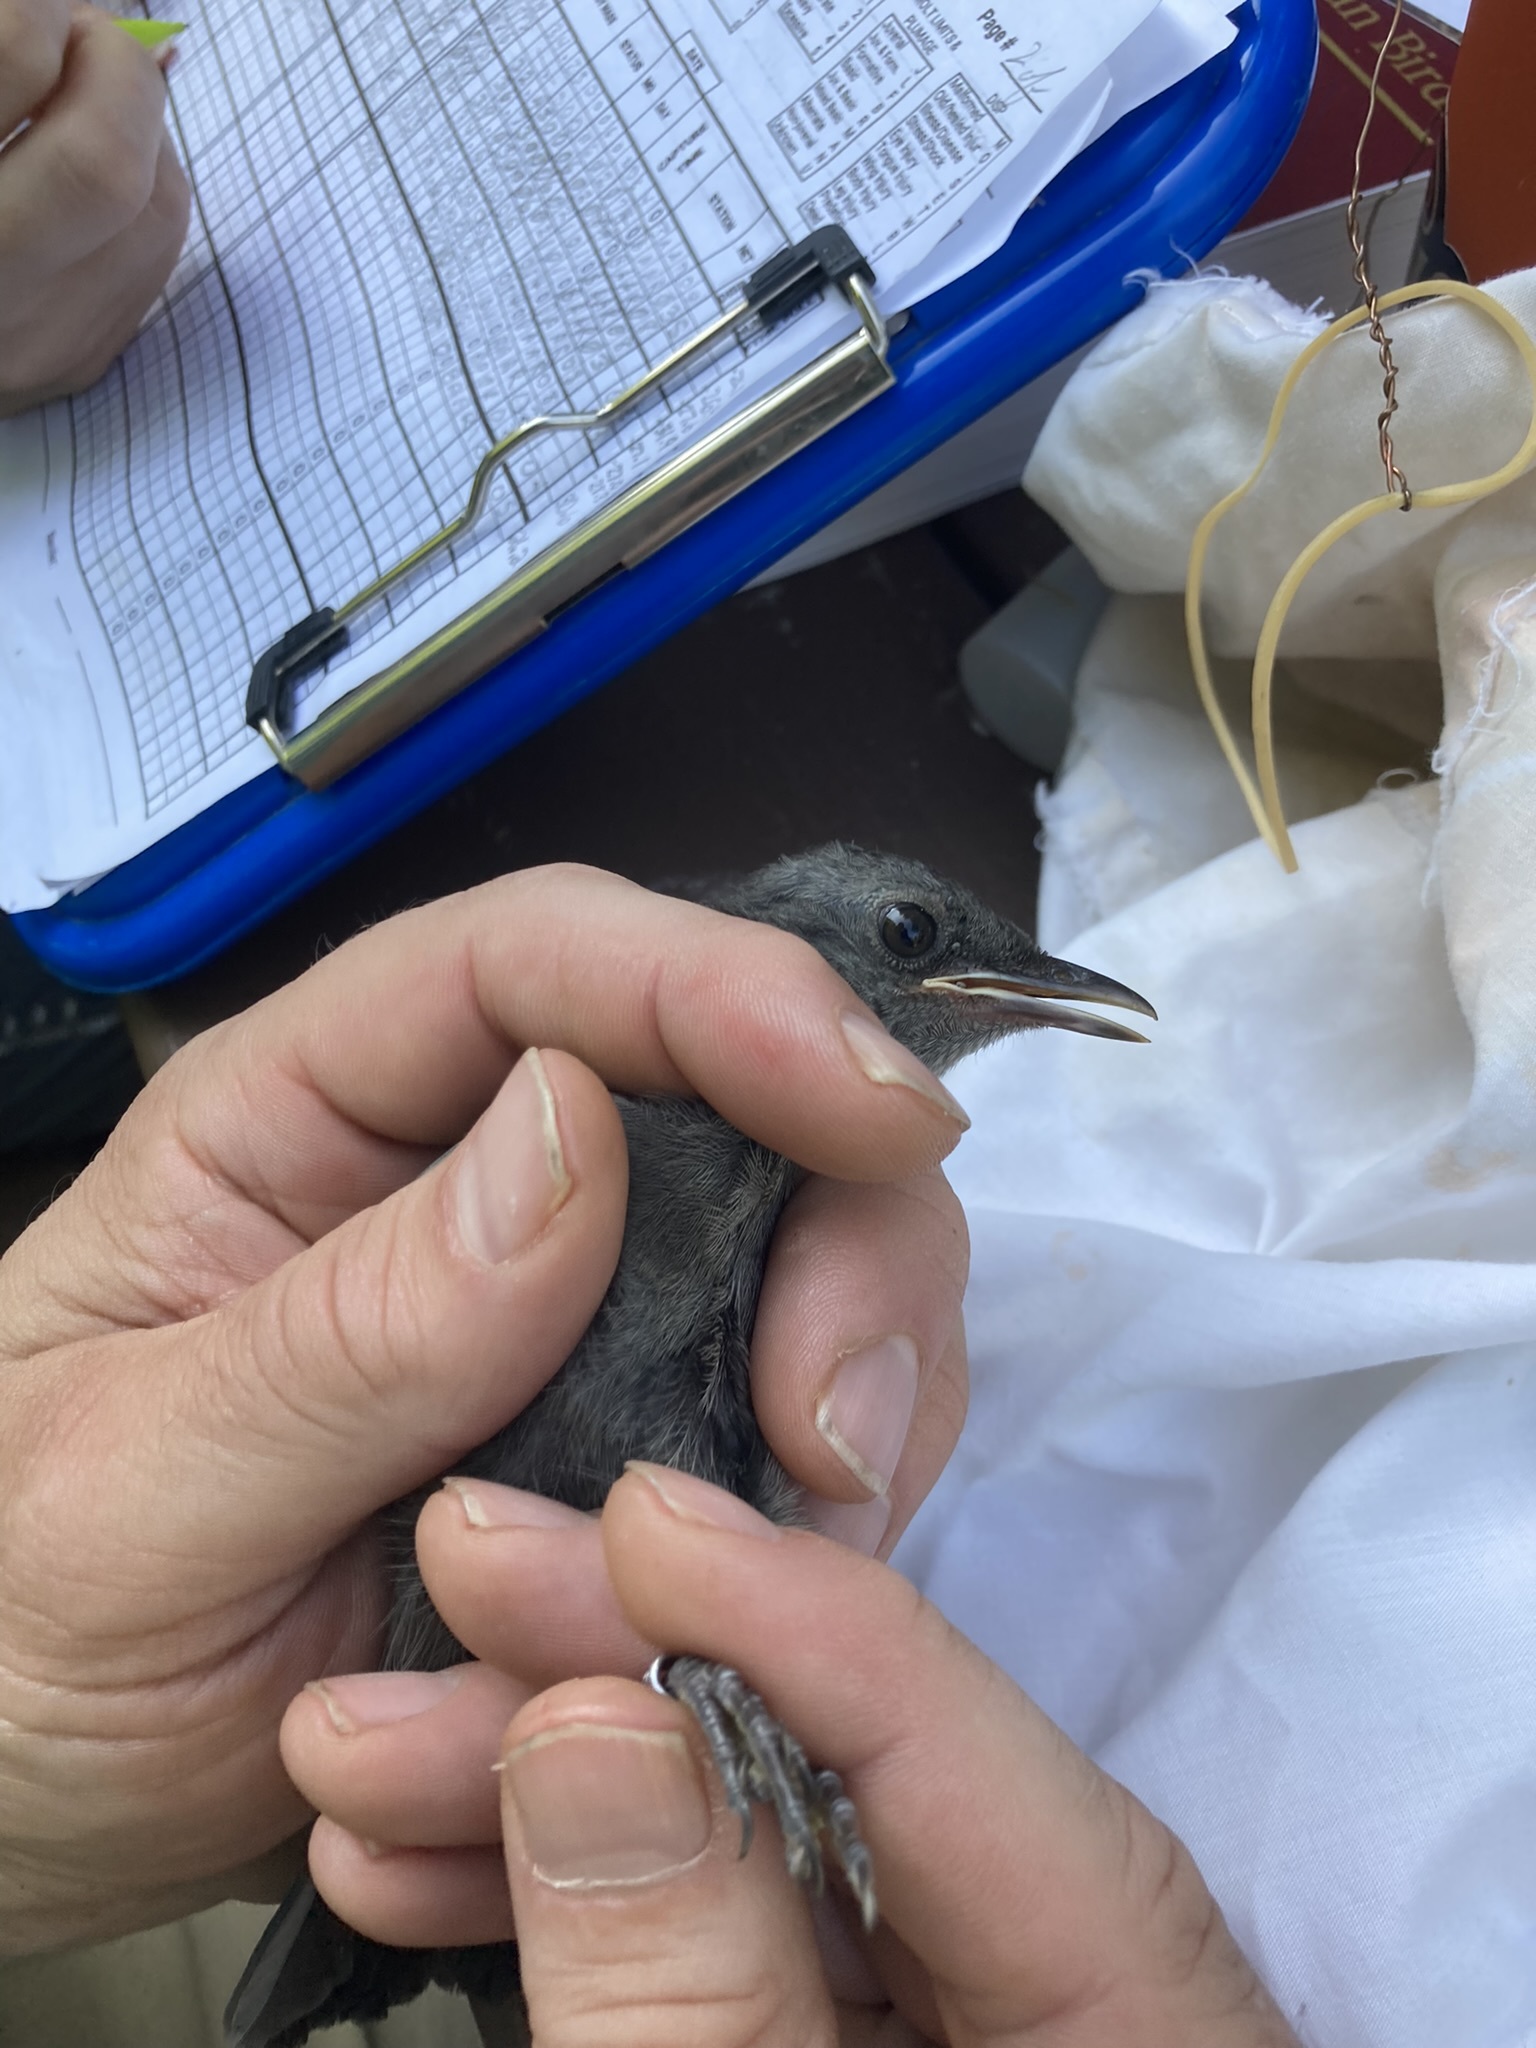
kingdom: Animalia
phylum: Chordata
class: Aves
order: Passeriformes
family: Mimidae
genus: Dumetella
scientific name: Dumetella carolinensis
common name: Gray catbird
